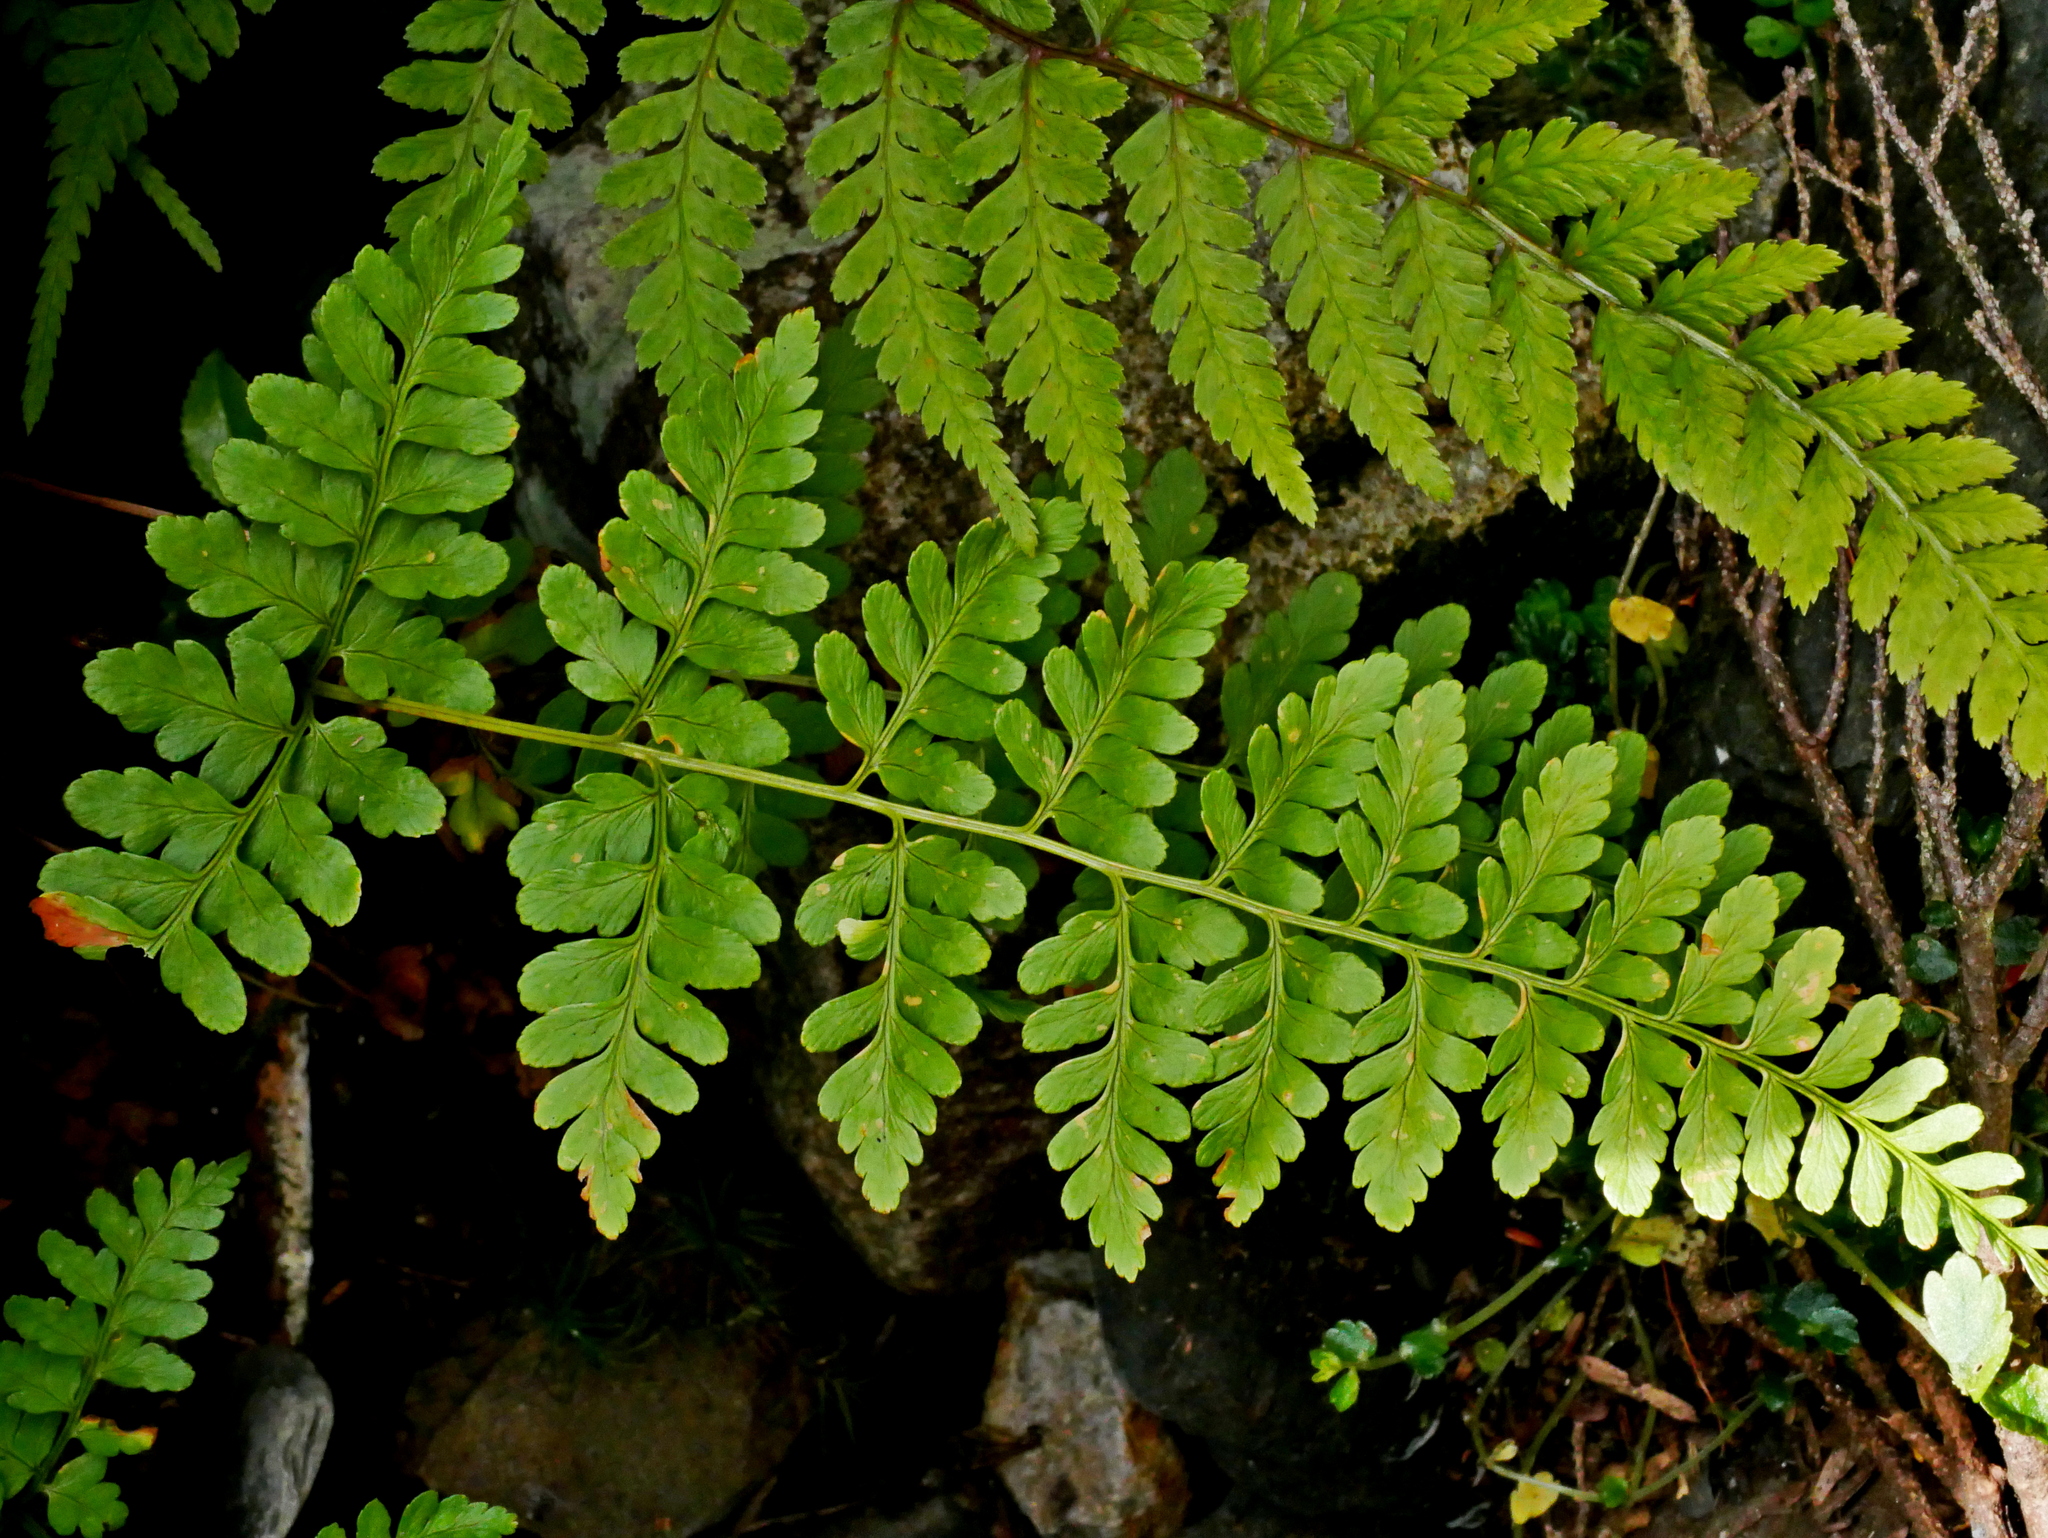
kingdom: Plantae
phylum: Tracheophyta
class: Polypodiopsida
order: Polypodiales
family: Dryopteridaceae
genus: Dryopteris
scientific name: Dryopteris yoroii
